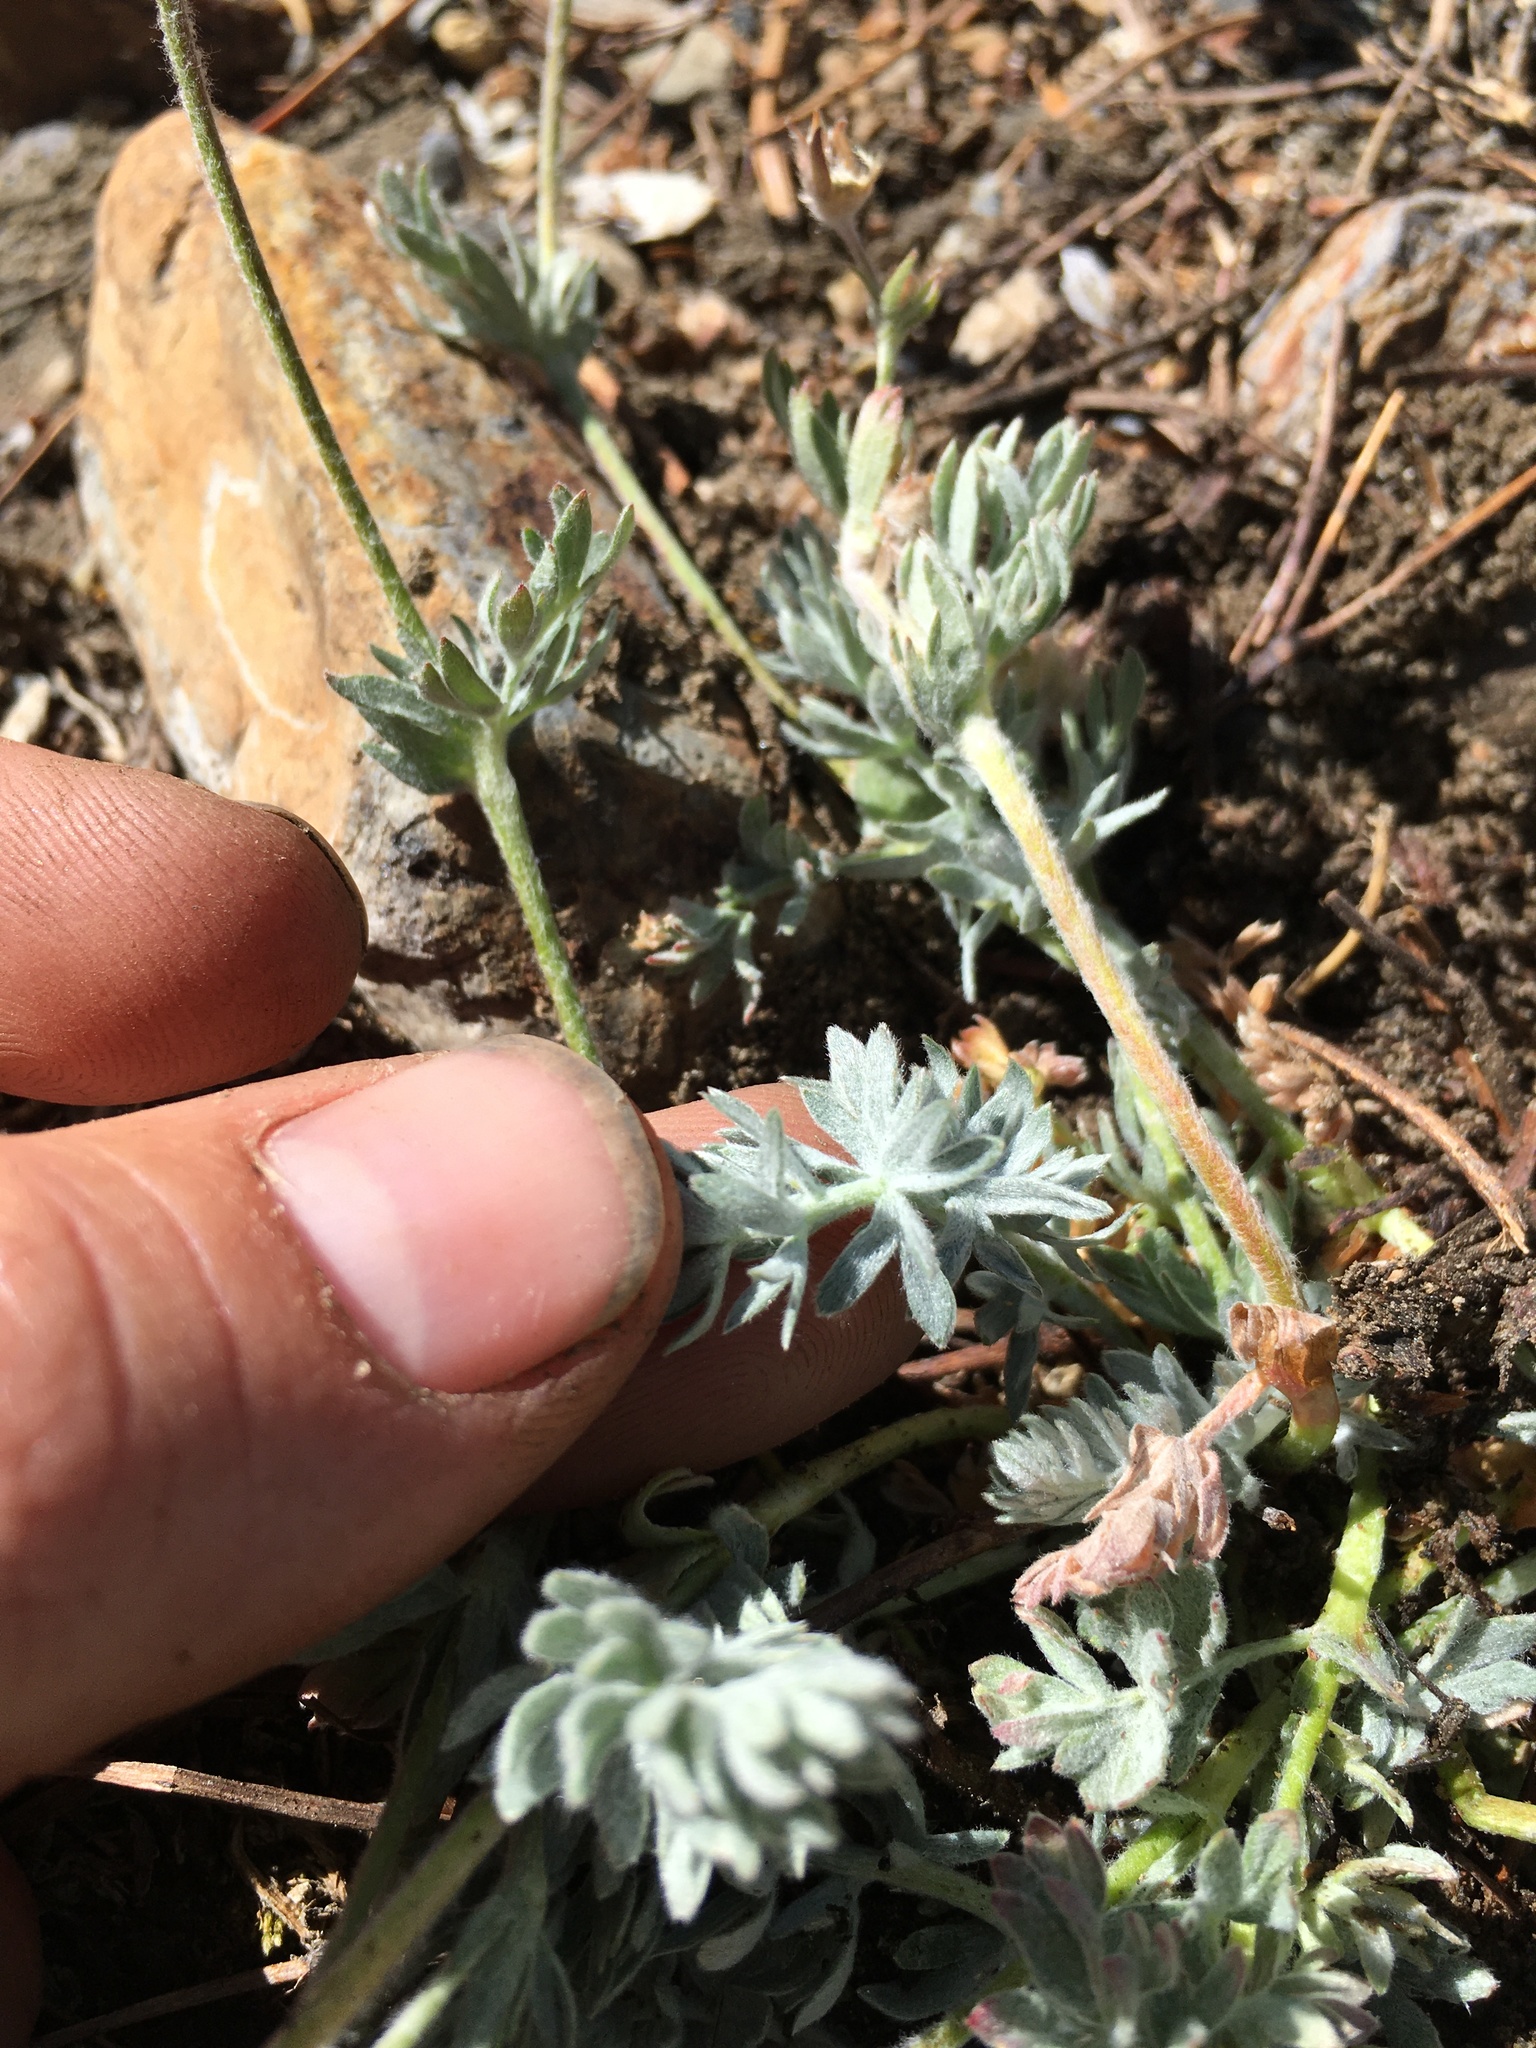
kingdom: Plantae
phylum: Tracheophyta
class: Magnoliopsida
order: Rosales
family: Rosaceae
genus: Potentilla
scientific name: Potentilla breweri
